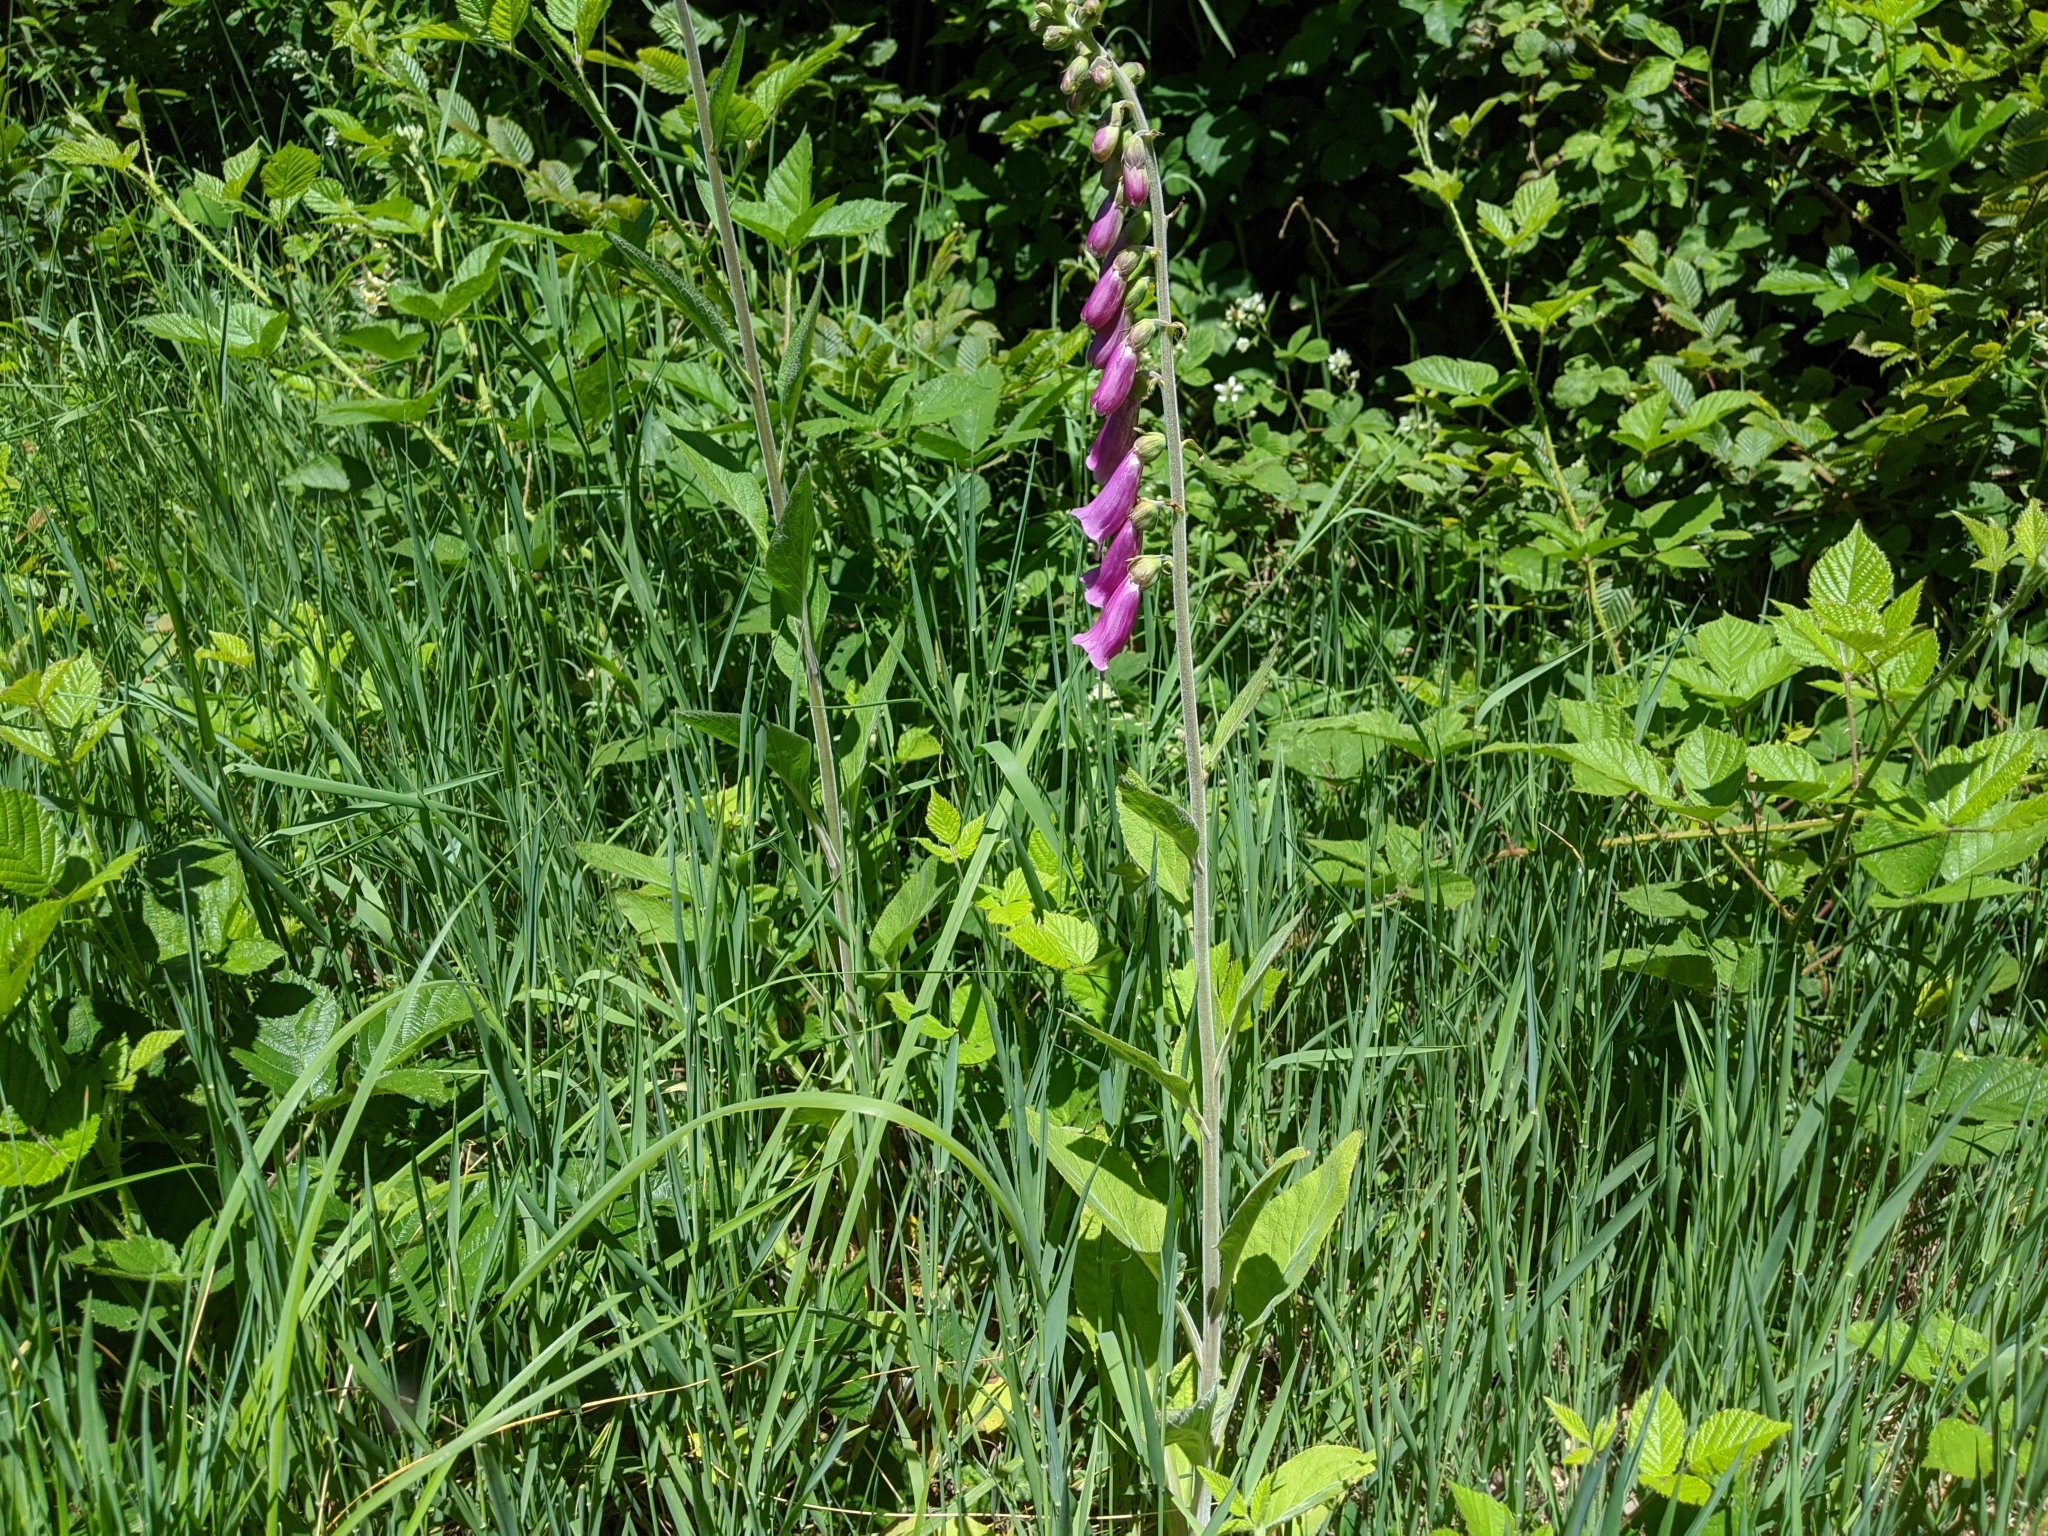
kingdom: Plantae
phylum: Tracheophyta
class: Magnoliopsida
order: Lamiales
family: Plantaginaceae
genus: Digitalis
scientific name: Digitalis purpurea
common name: Foxglove
